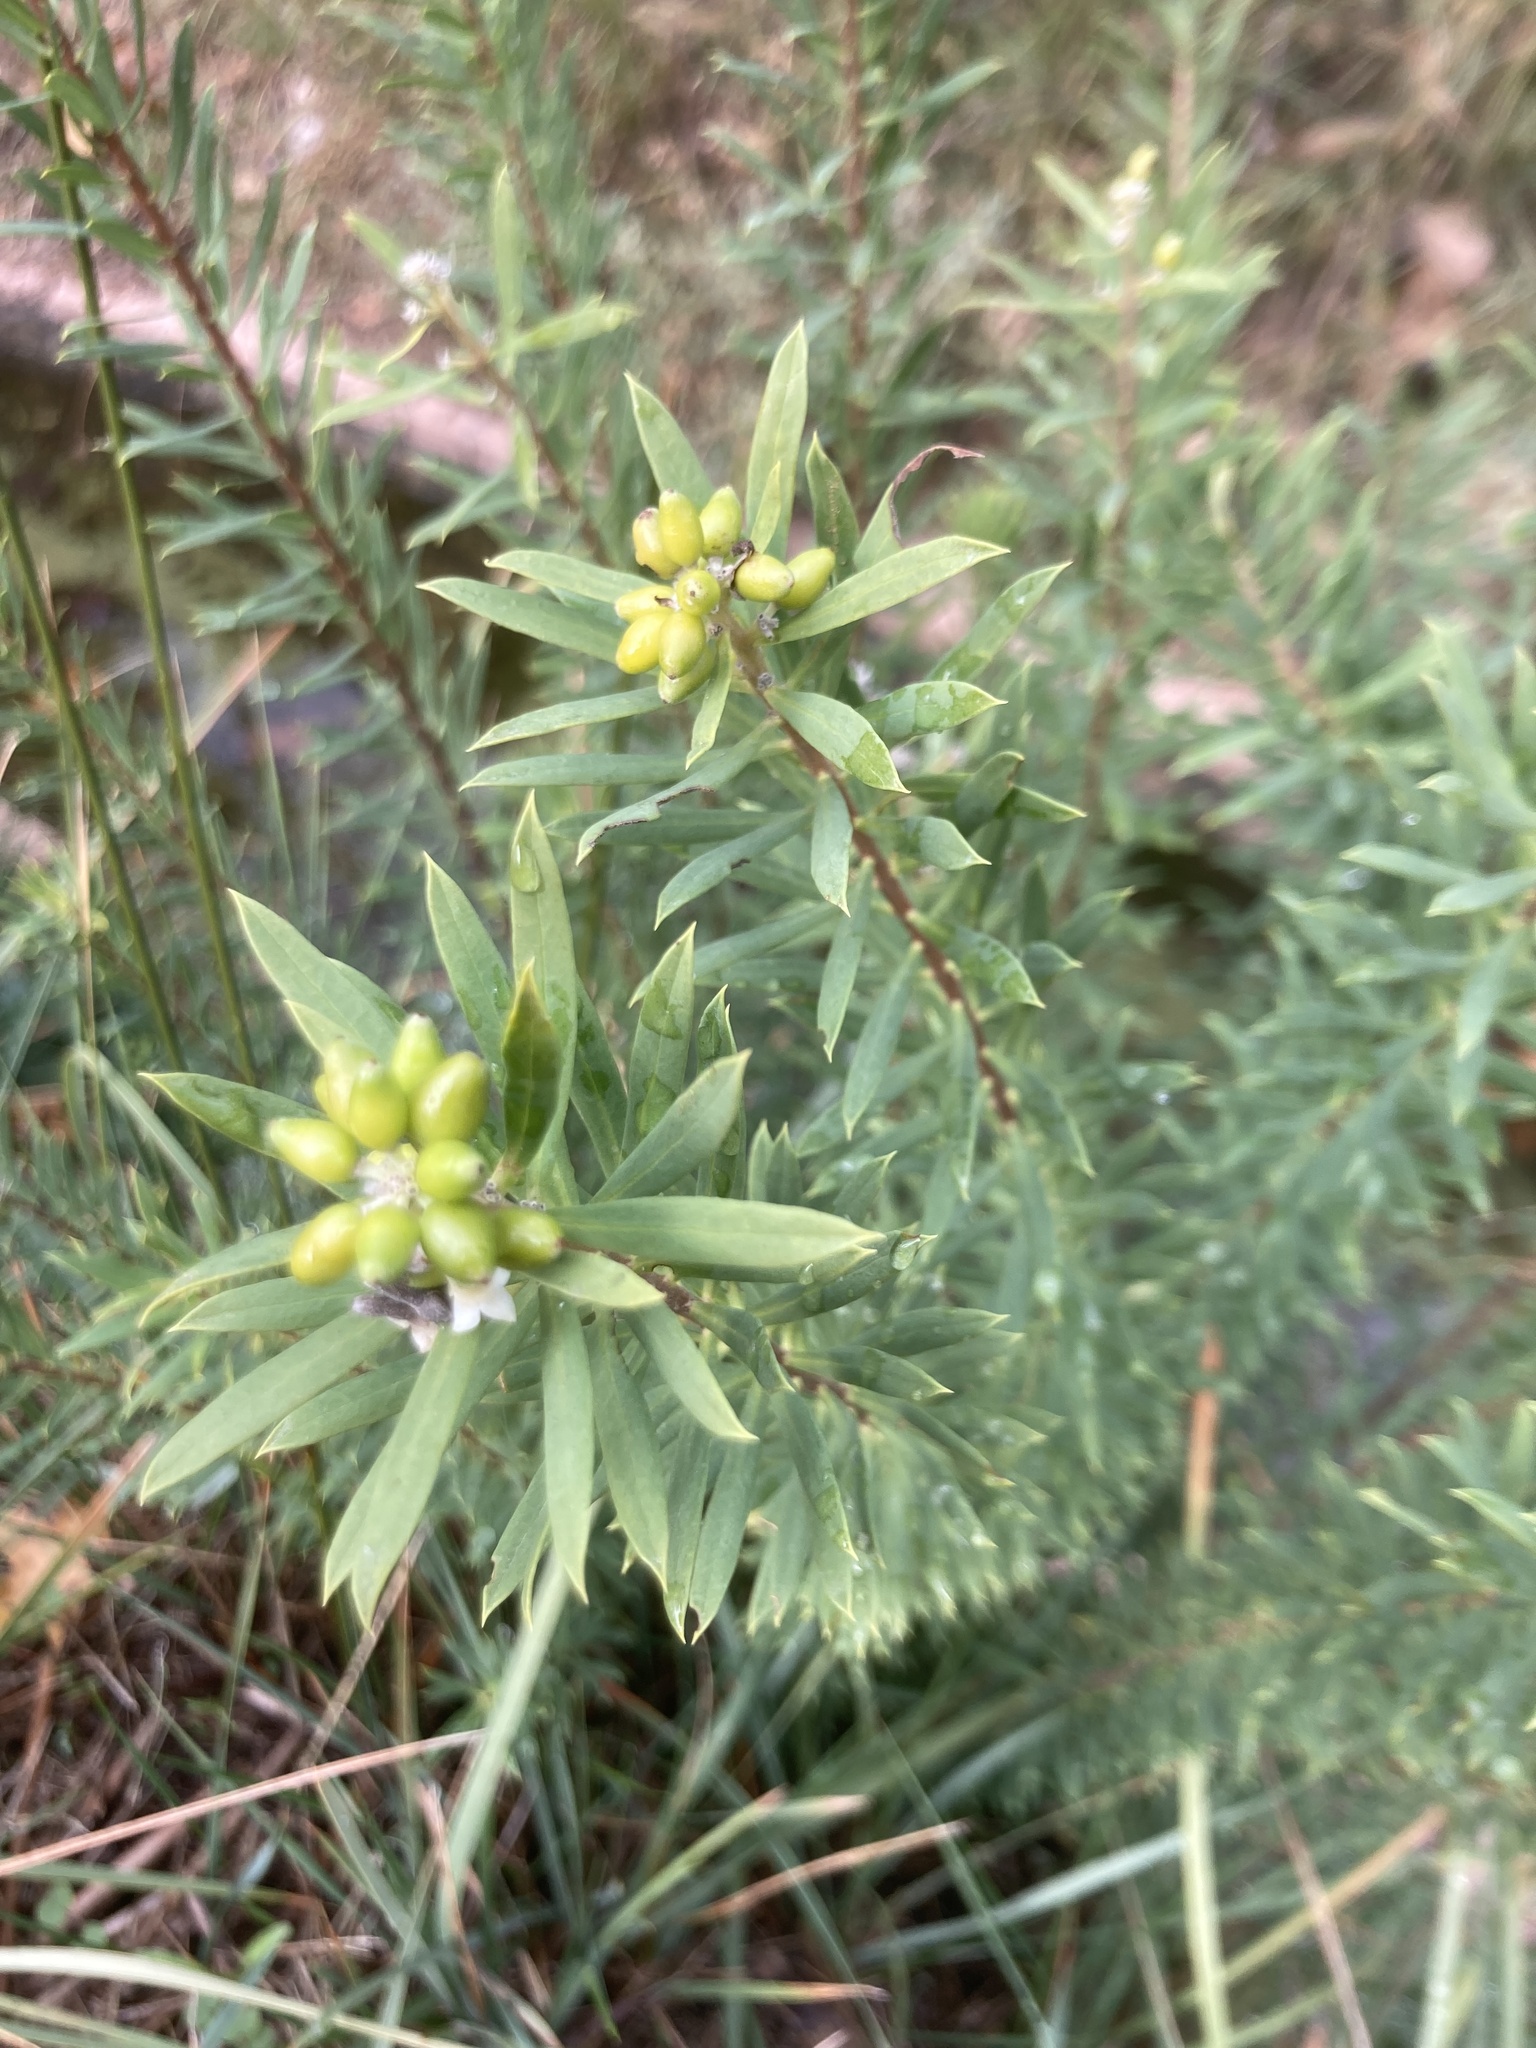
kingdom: Plantae
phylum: Tracheophyta
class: Magnoliopsida
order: Malvales
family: Thymelaeaceae
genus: Daphne
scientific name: Daphne gnidium
